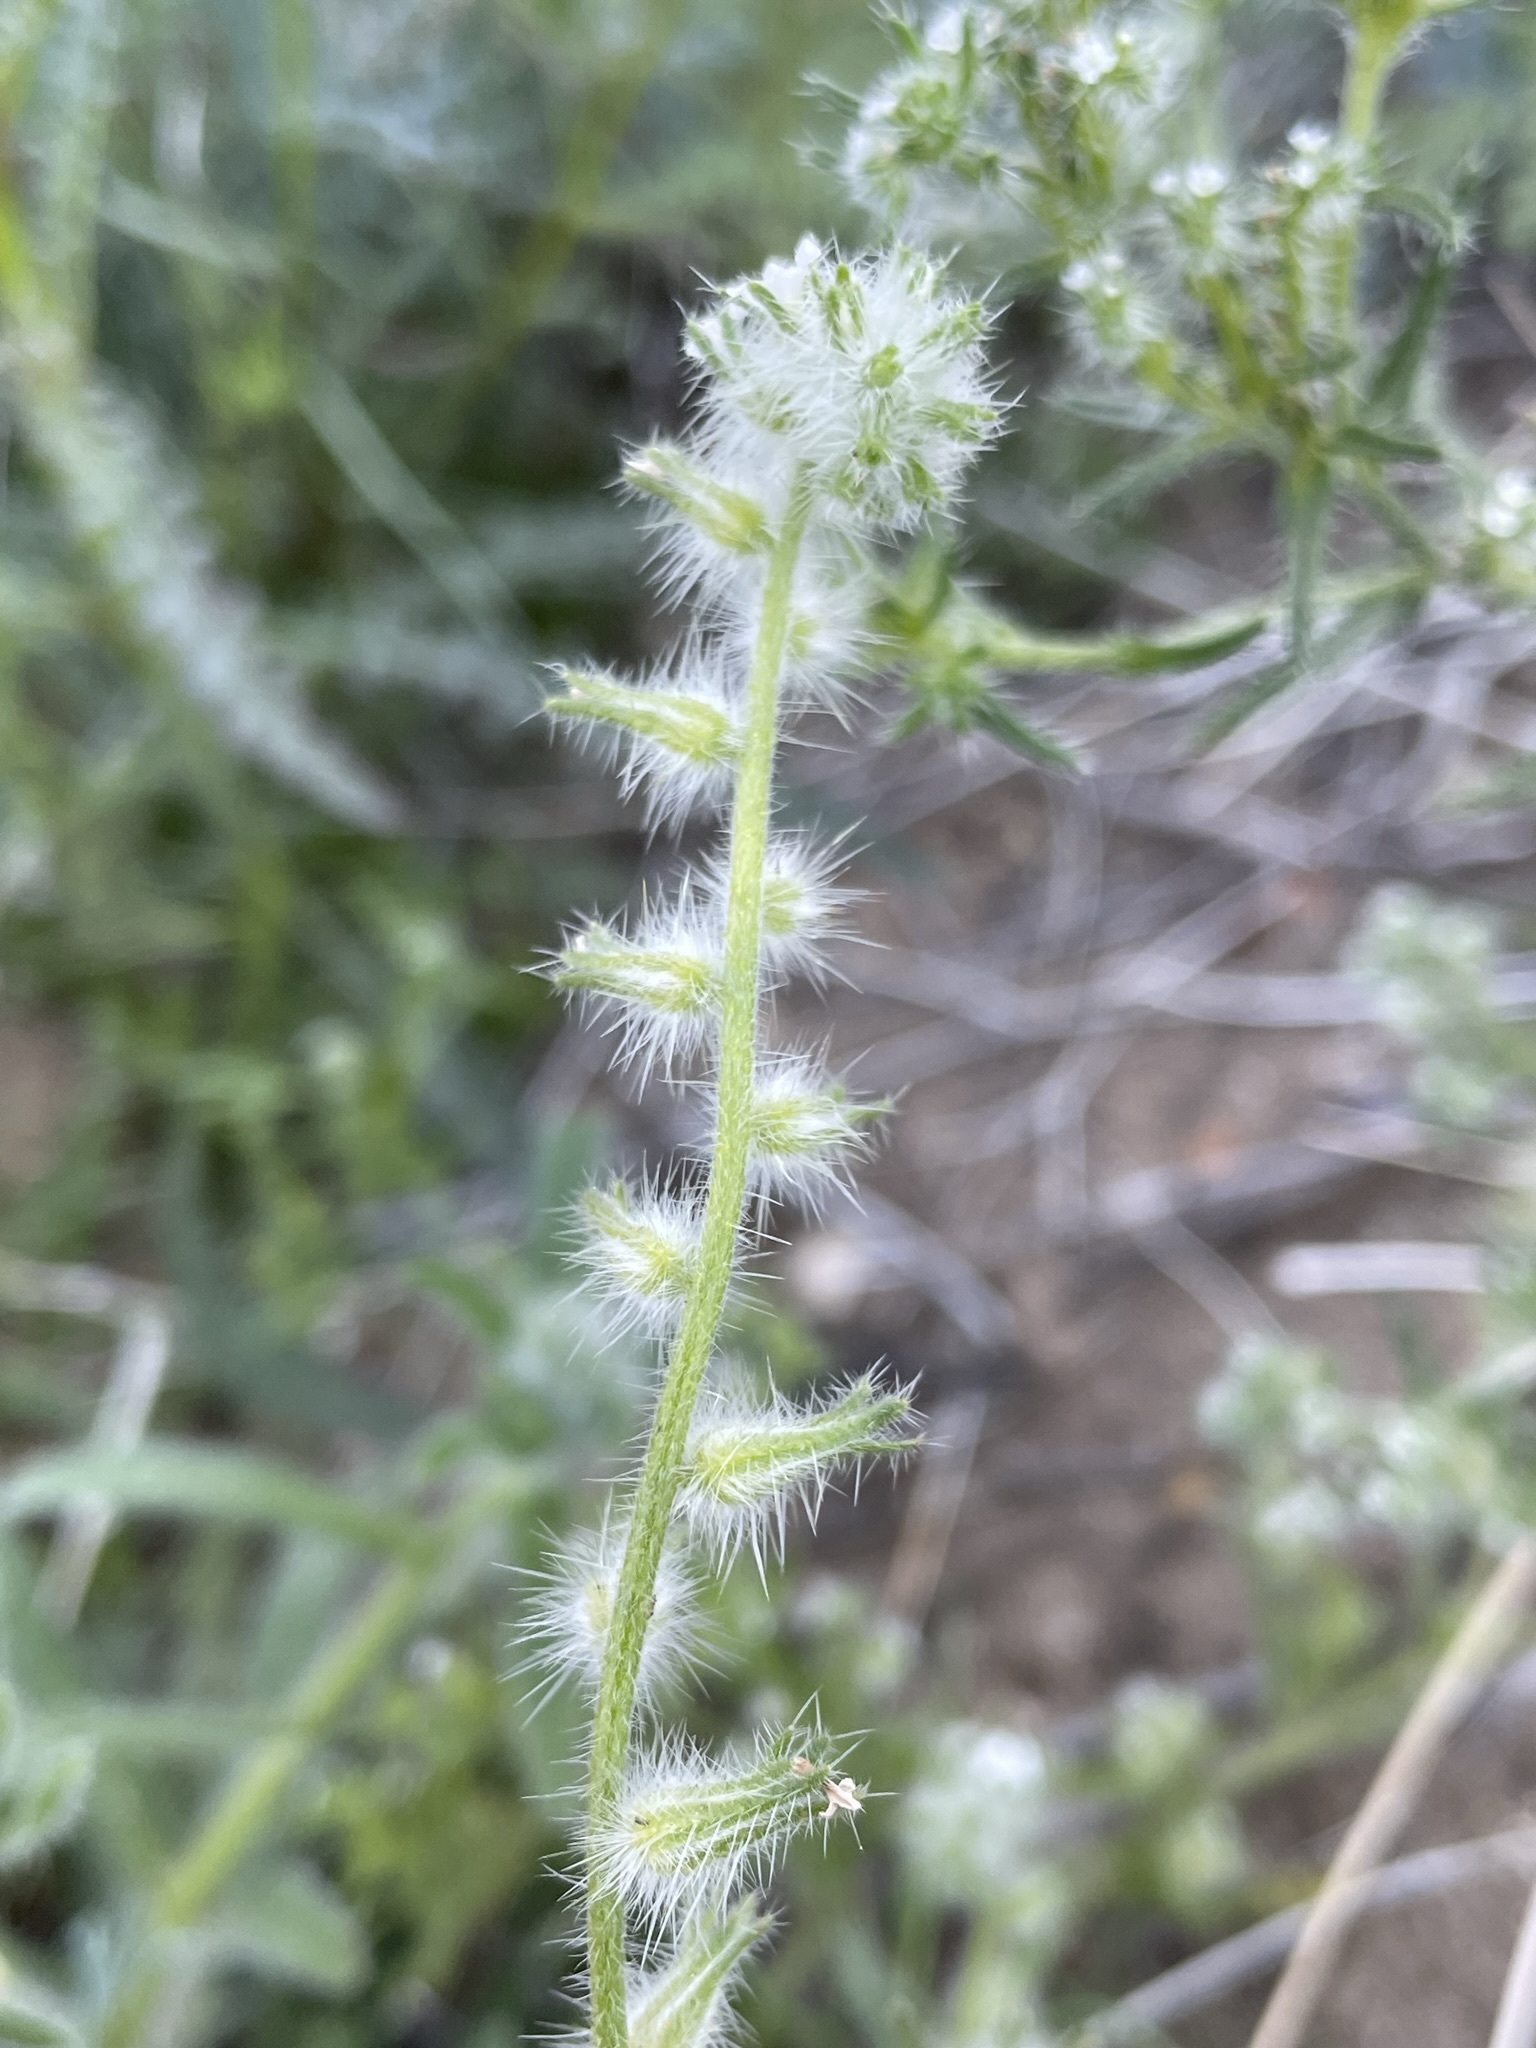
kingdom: Plantae
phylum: Tracheophyta
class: Magnoliopsida
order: Boraginales
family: Boraginaceae
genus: Cryptantha
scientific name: Cryptantha barbigera
